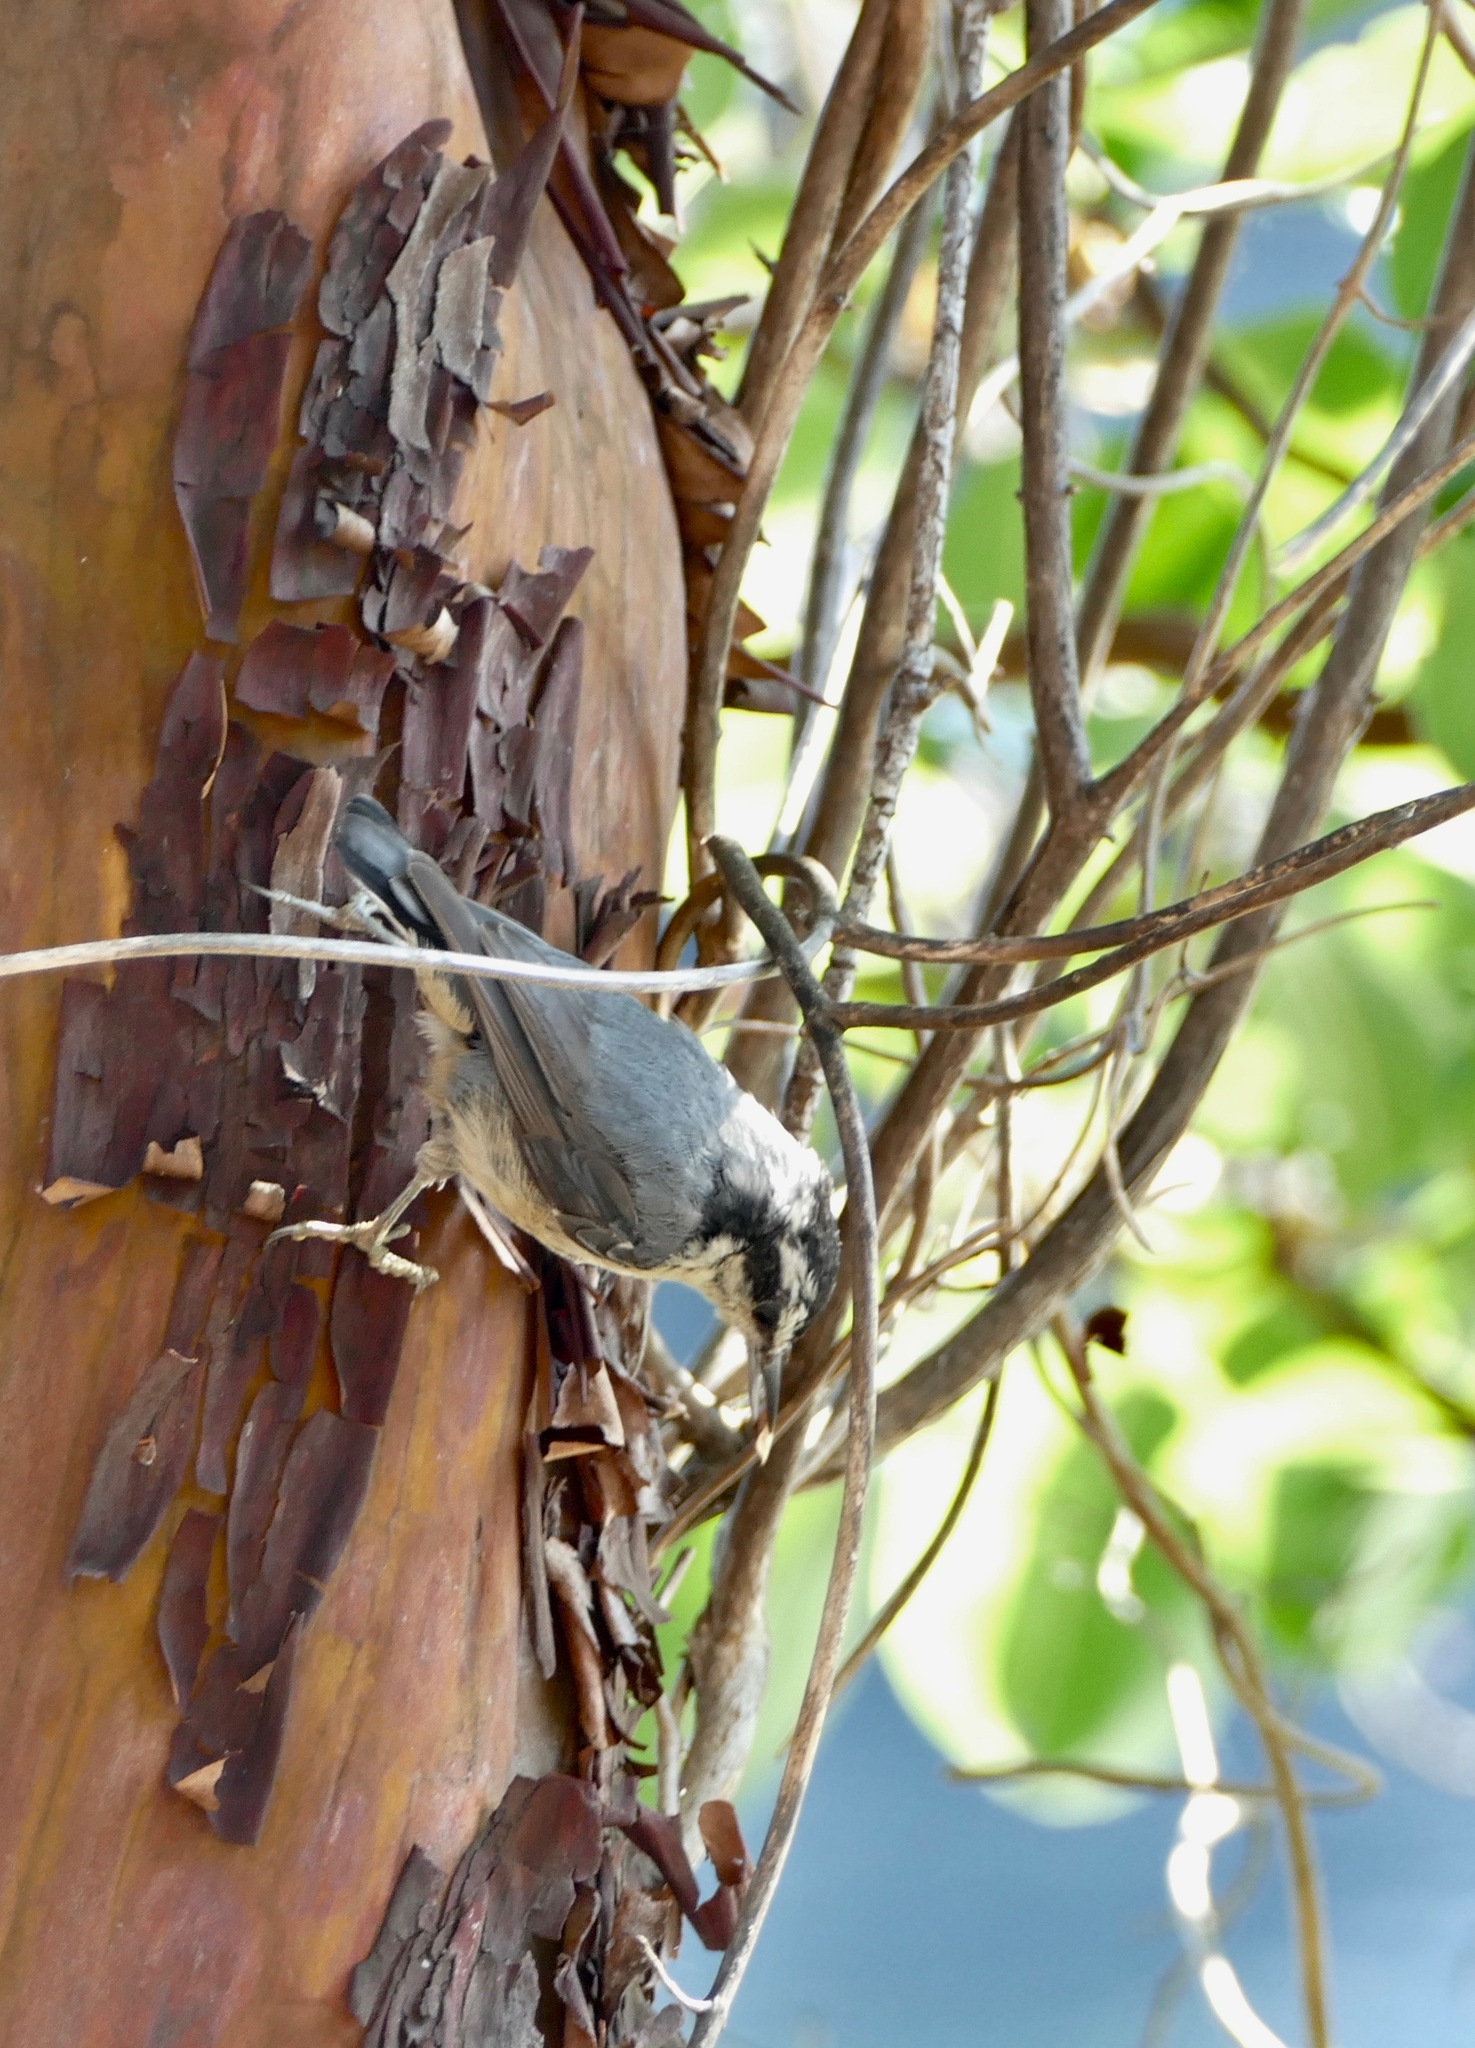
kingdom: Animalia
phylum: Chordata
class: Aves
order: Passeriformes
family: Sittidae
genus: Sitta
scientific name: Sitta canadensis
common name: Red-breasted nuthatch
